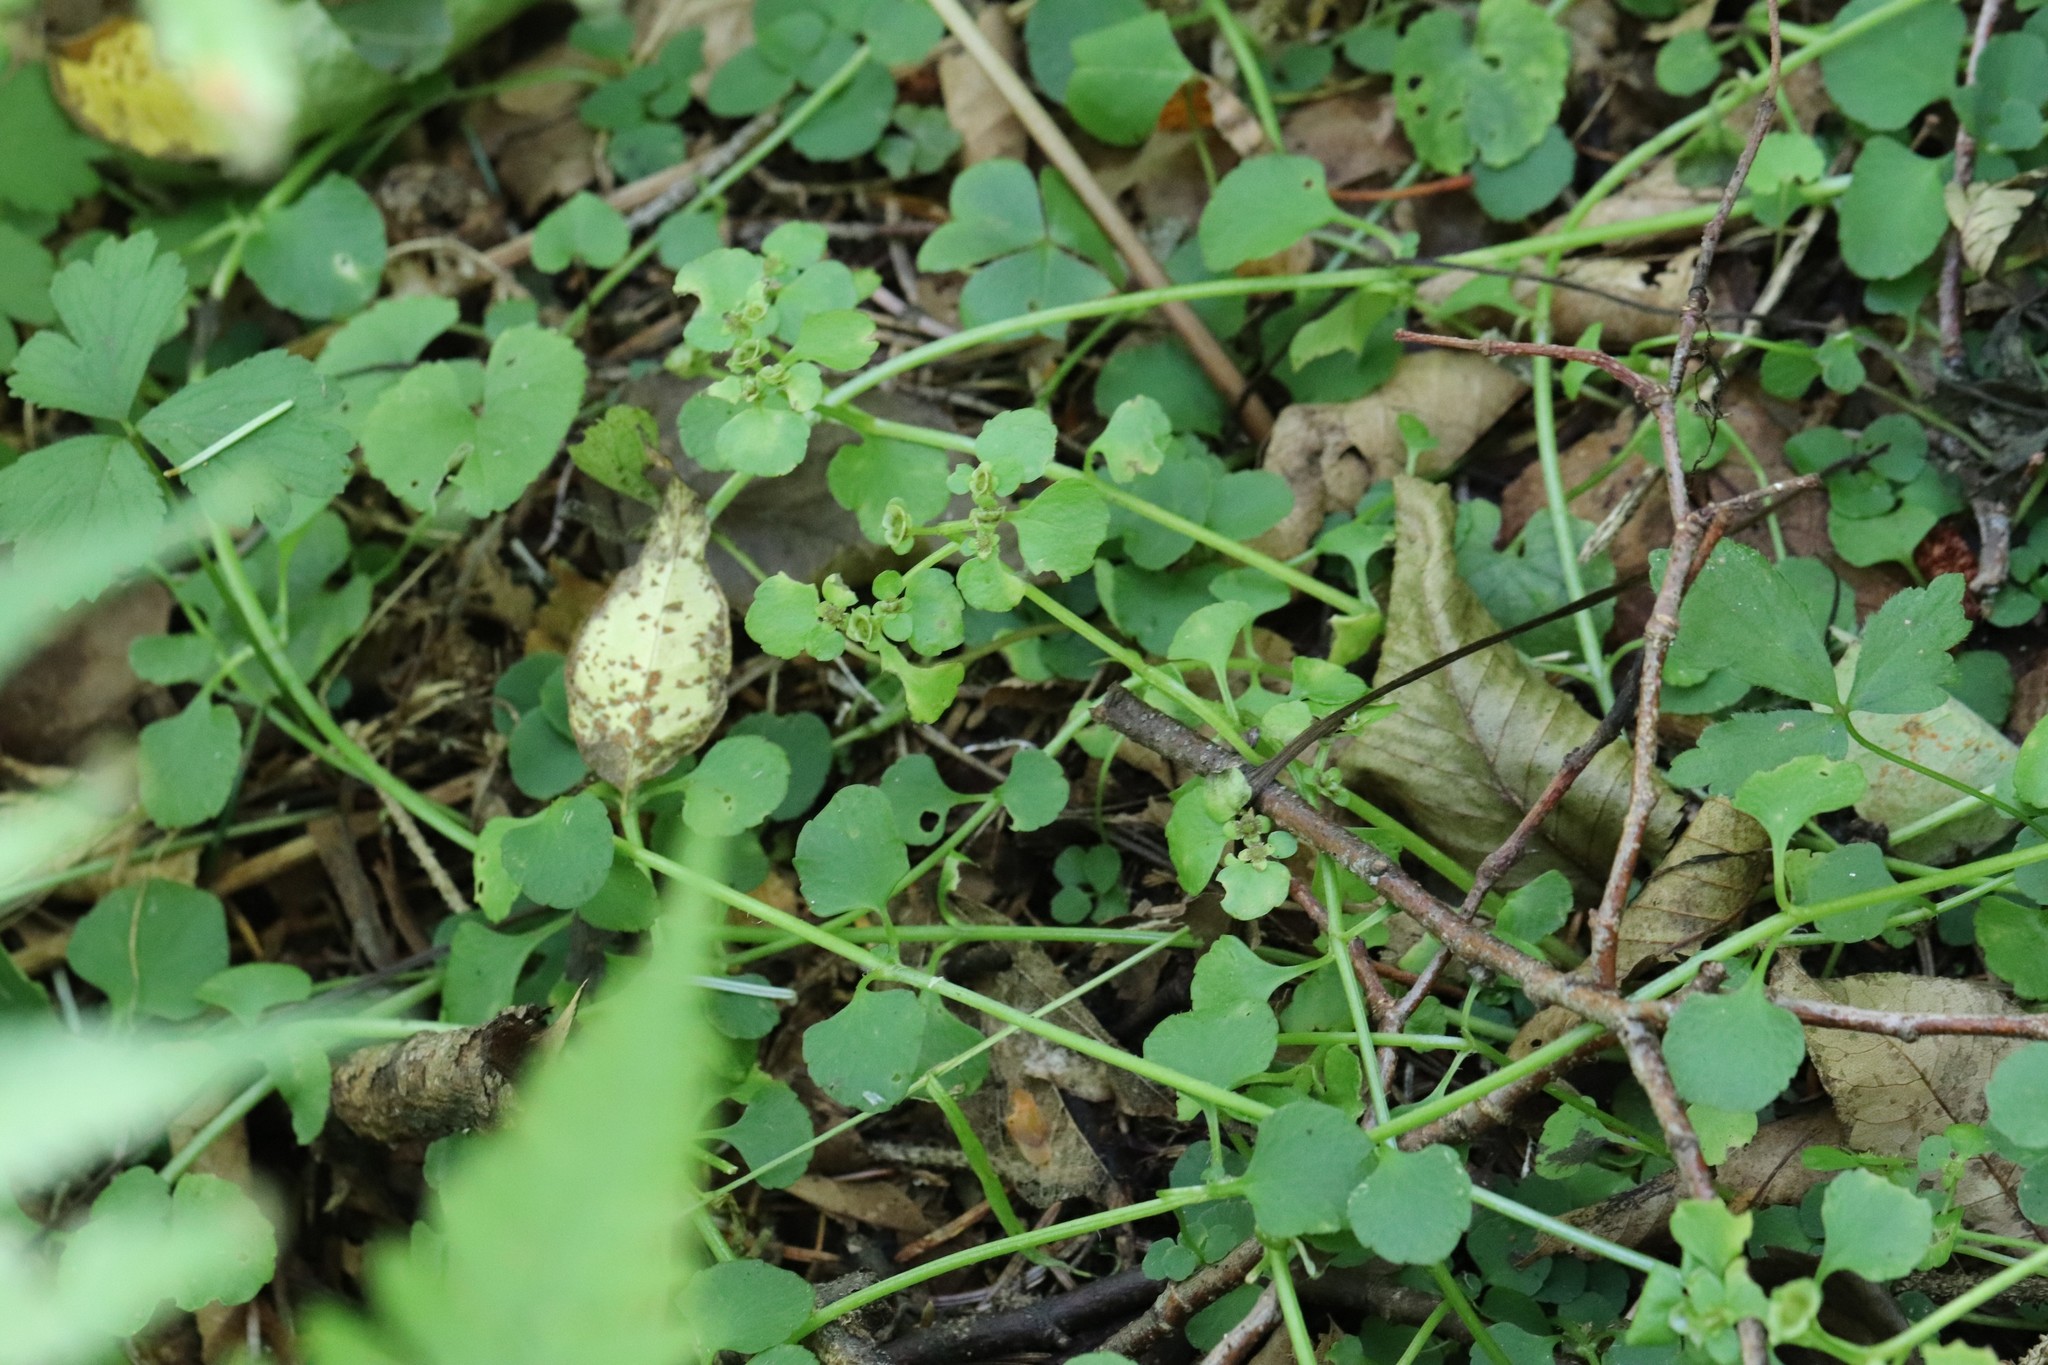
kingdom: Plantae
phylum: Tracheophyta
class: Magnoliopsida
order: Saxifragales
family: Saxifragaceae
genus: Chrysosplenium
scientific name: Chrysosplenium ramosum
